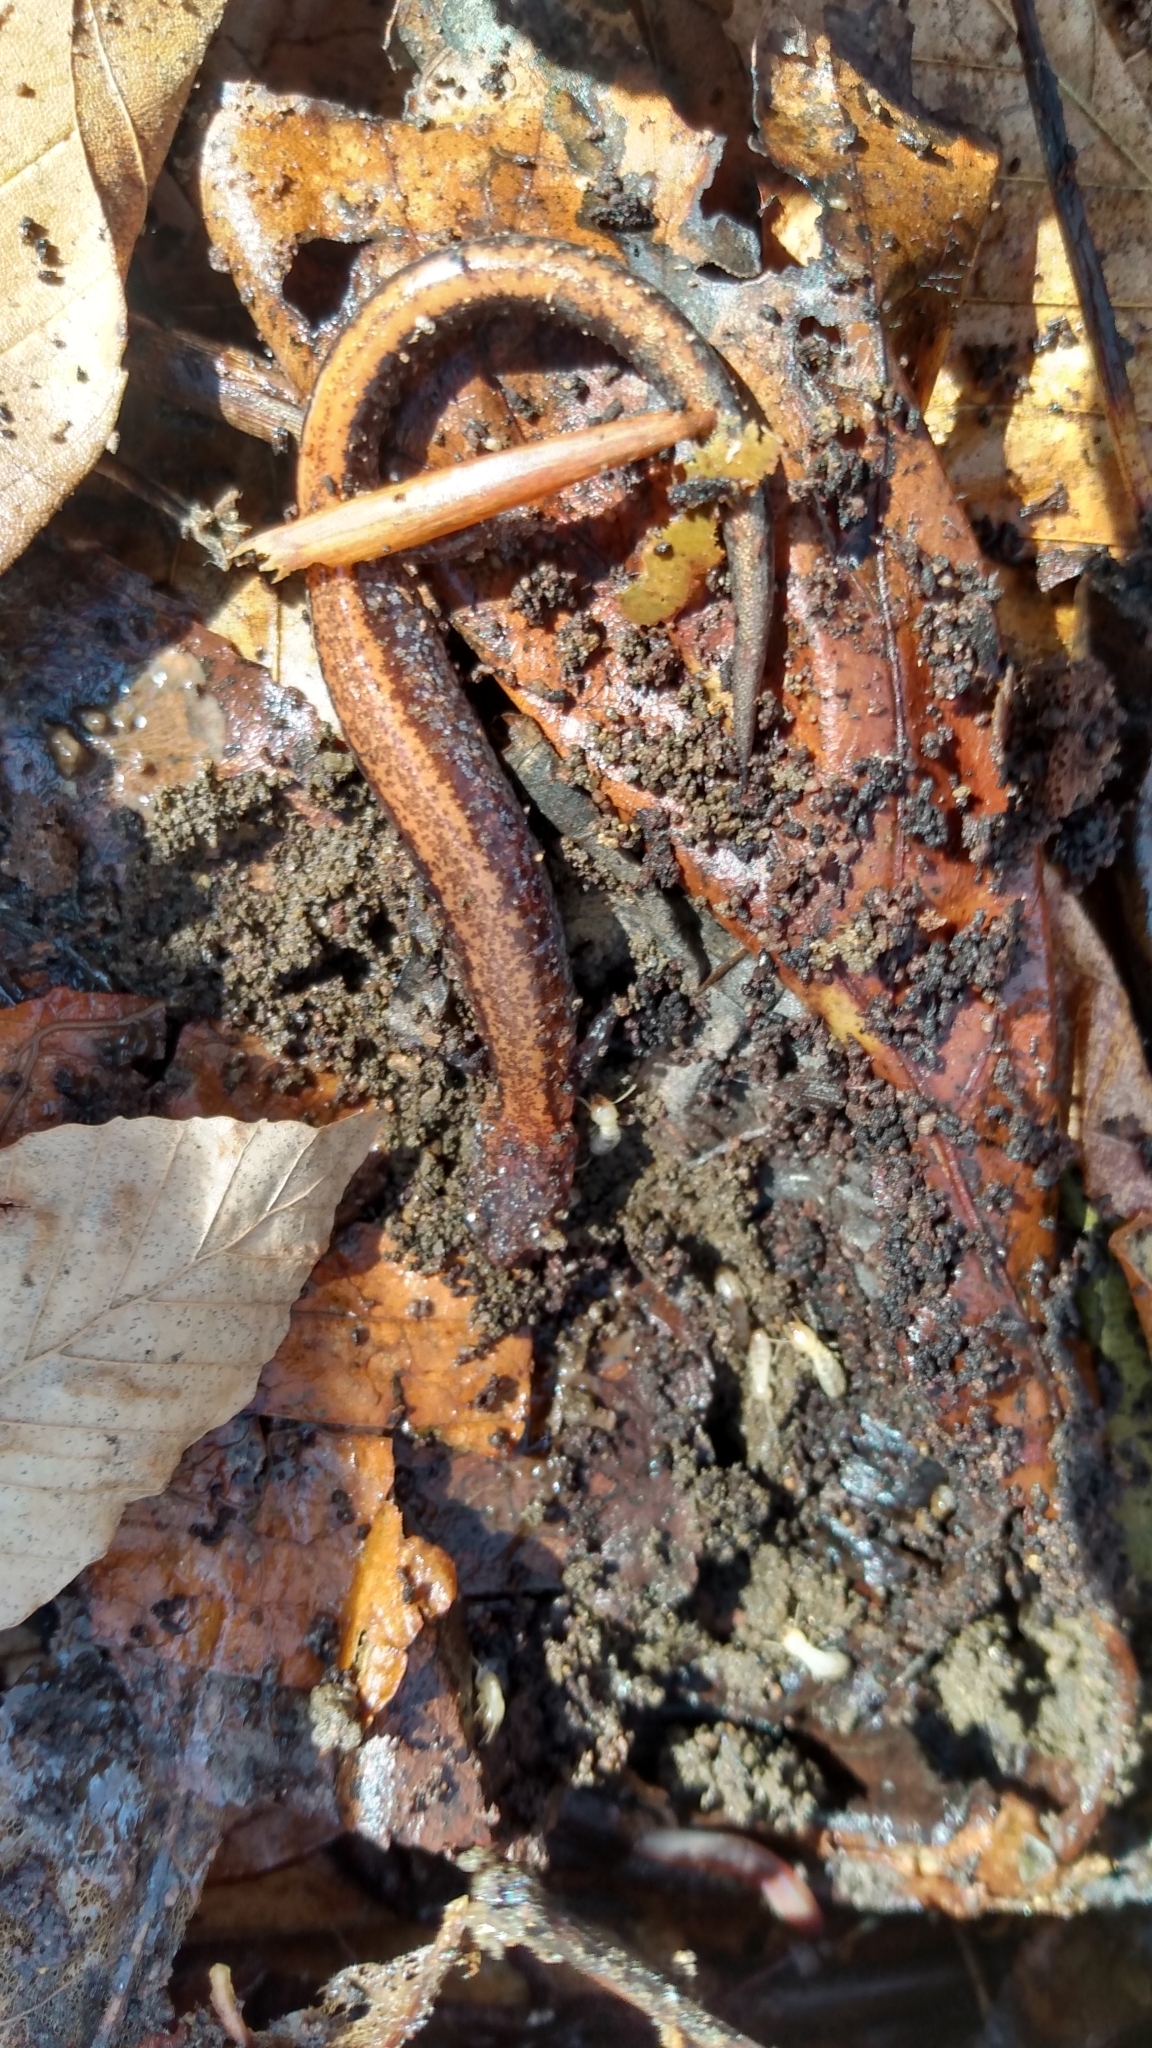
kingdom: Animalia
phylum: Chordata
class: Amphibia
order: Caudata
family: Plethodontidae
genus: Plethodon
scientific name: Plethodon cinereus
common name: Redback salamander
